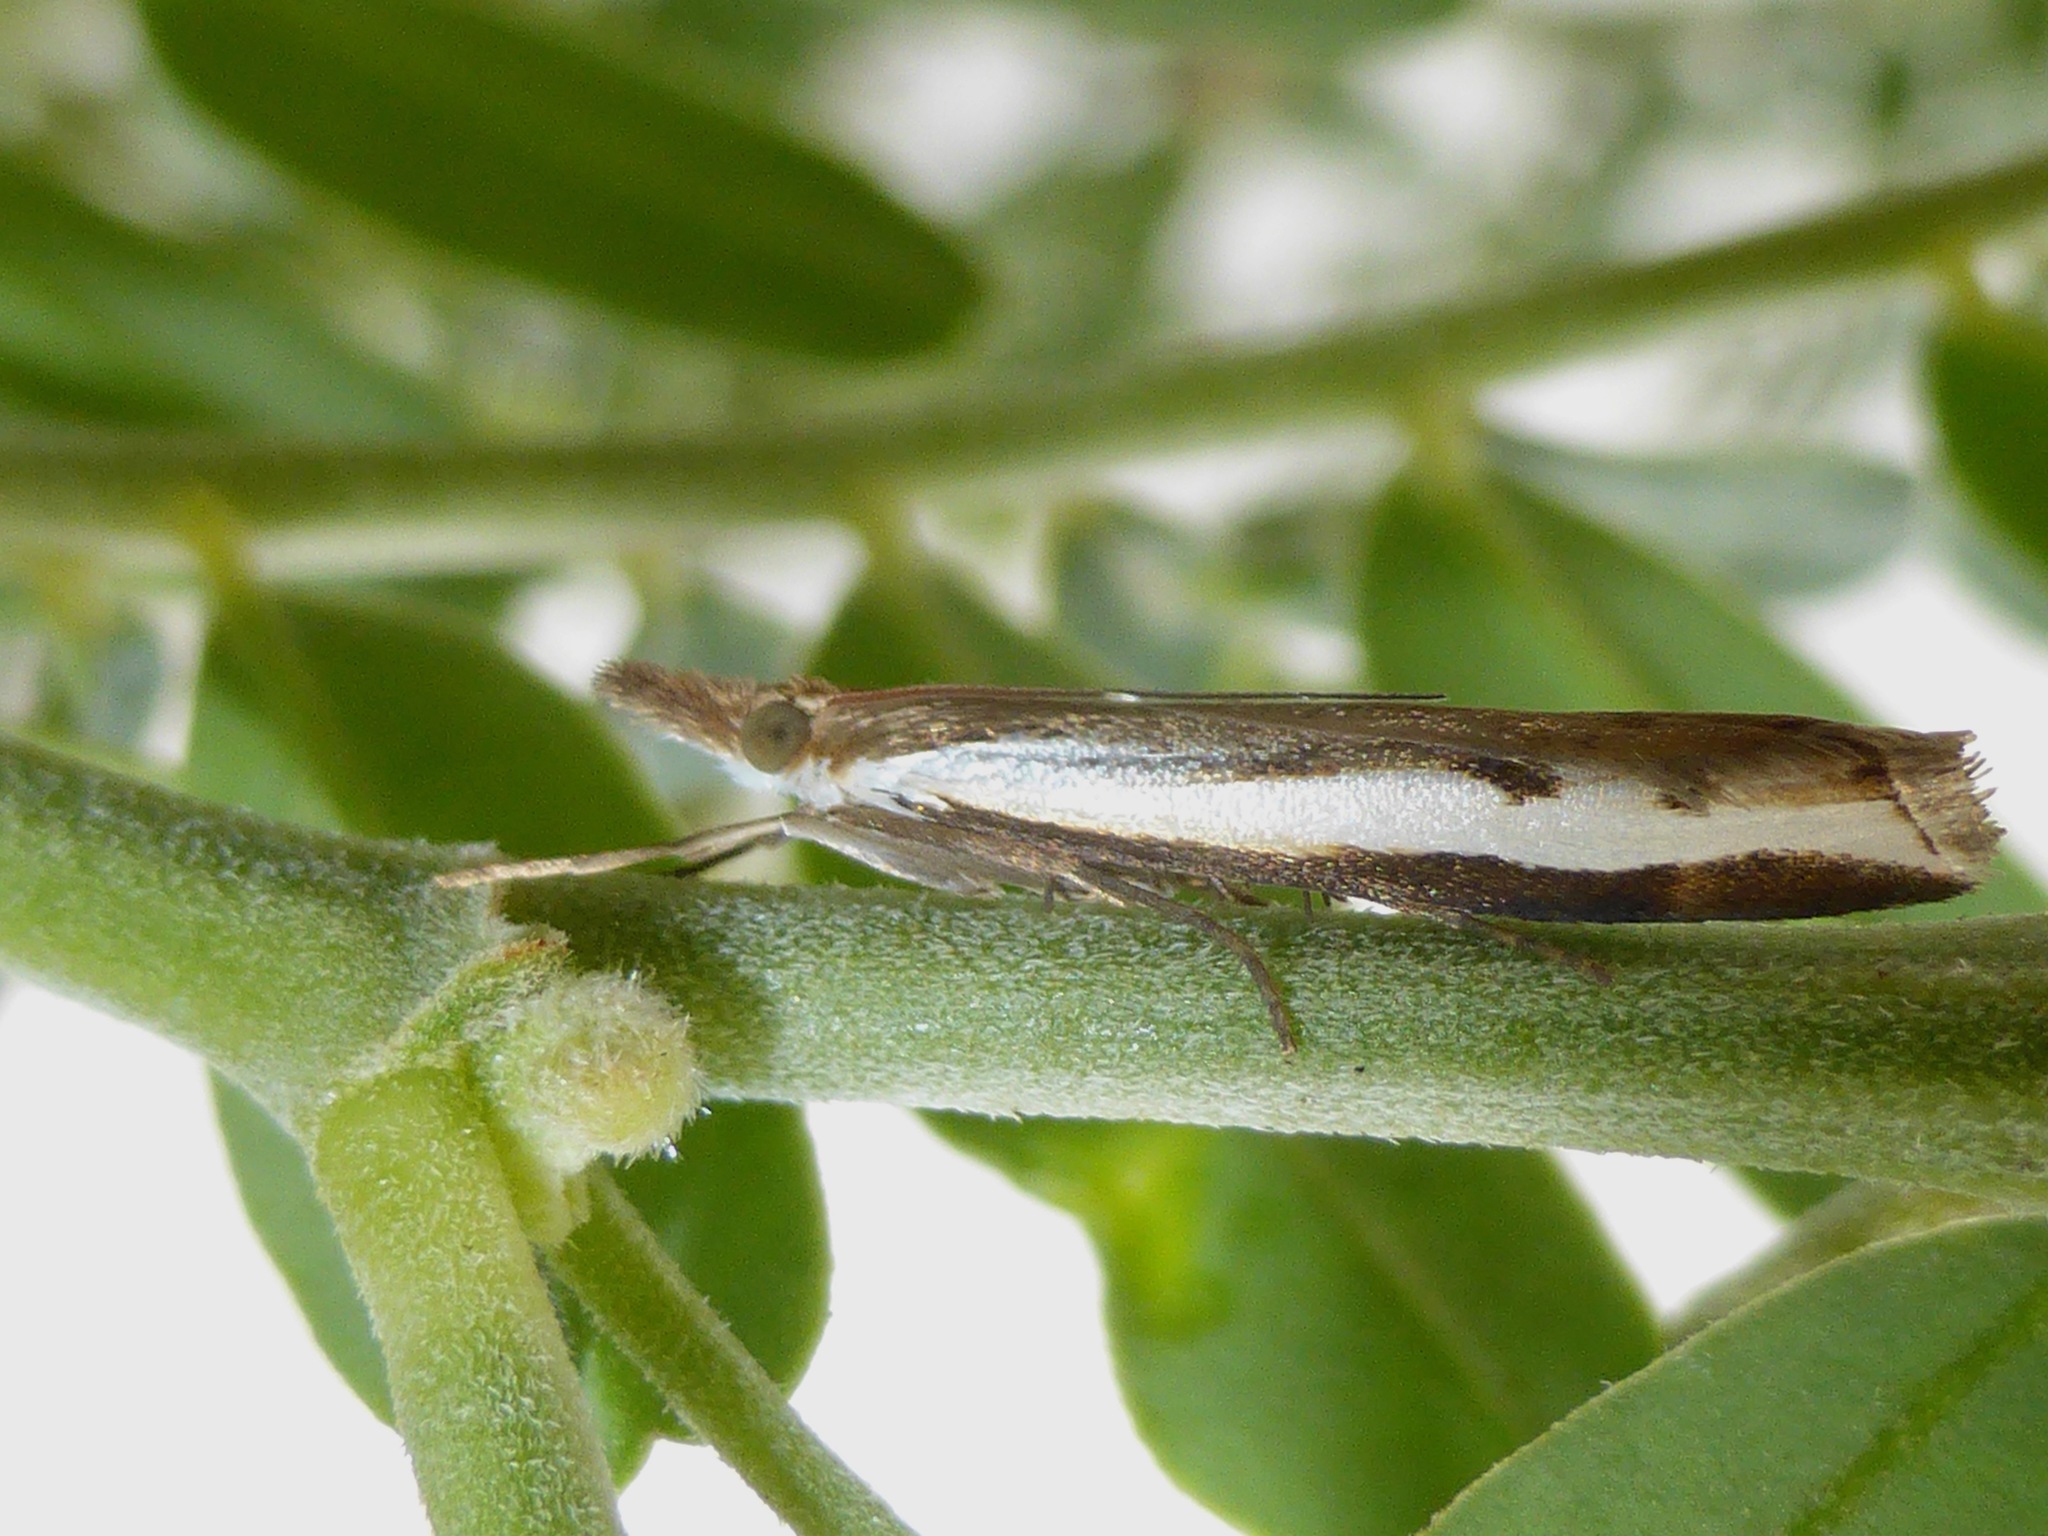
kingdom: Animalia
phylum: Arthropoda
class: Insecta
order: Lepidoptera
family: Crambidae
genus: Orocrambus
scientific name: Orocrambus flexuosellus
